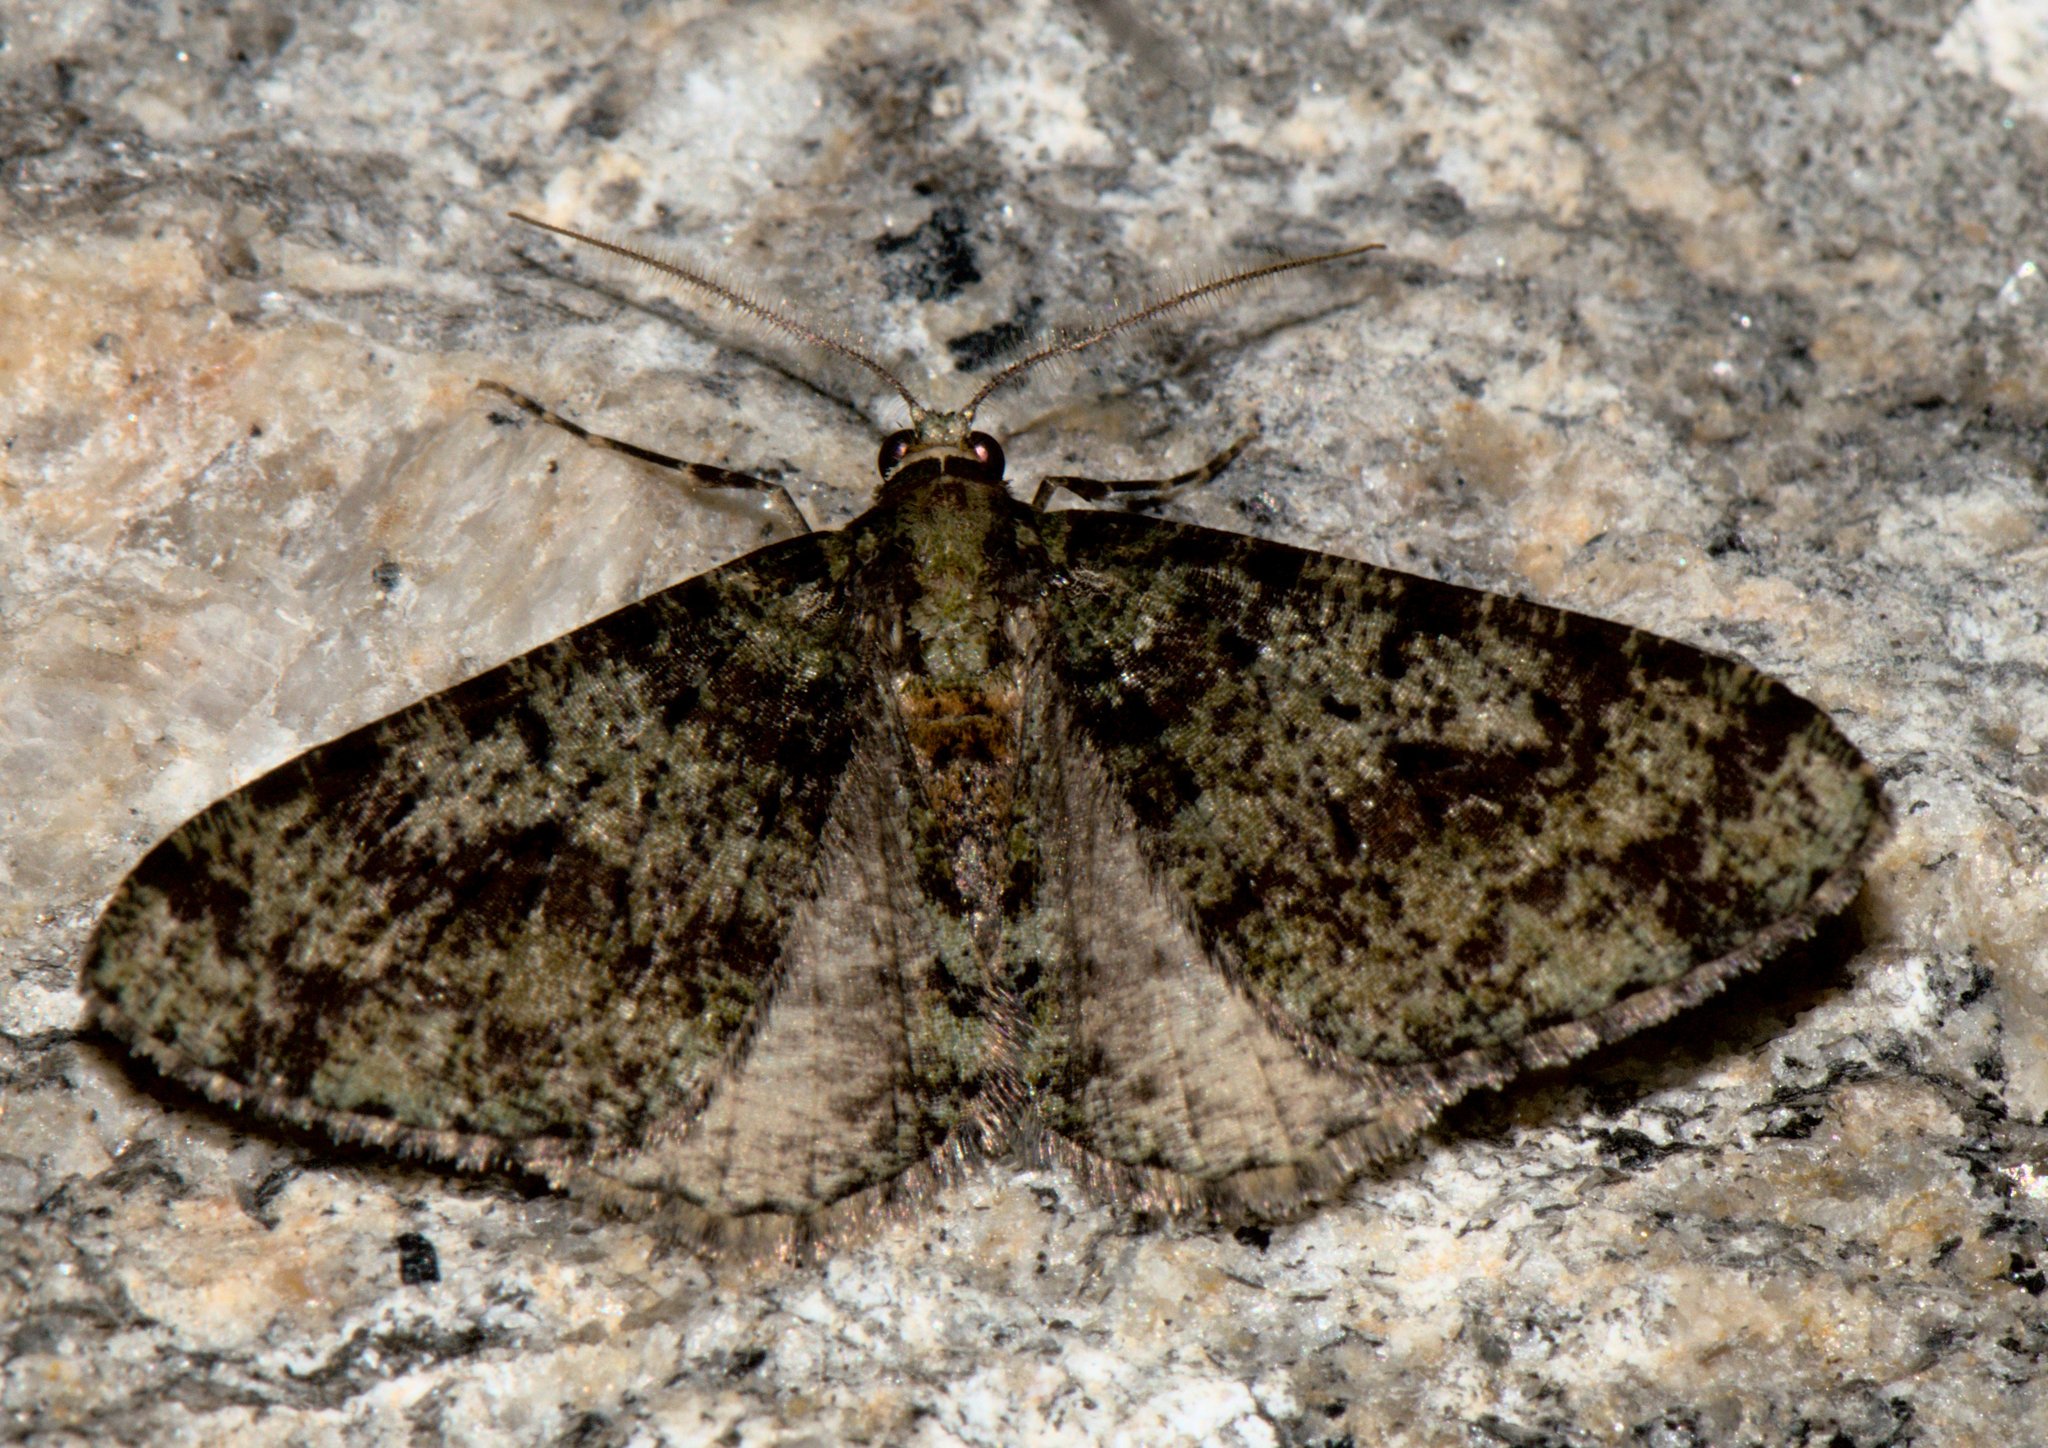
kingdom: Animalia
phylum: Arthropoda
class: Insecta
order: Lepidoptera
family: Geometridae
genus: Myrioblephara
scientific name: Myrioblephara duplexa
